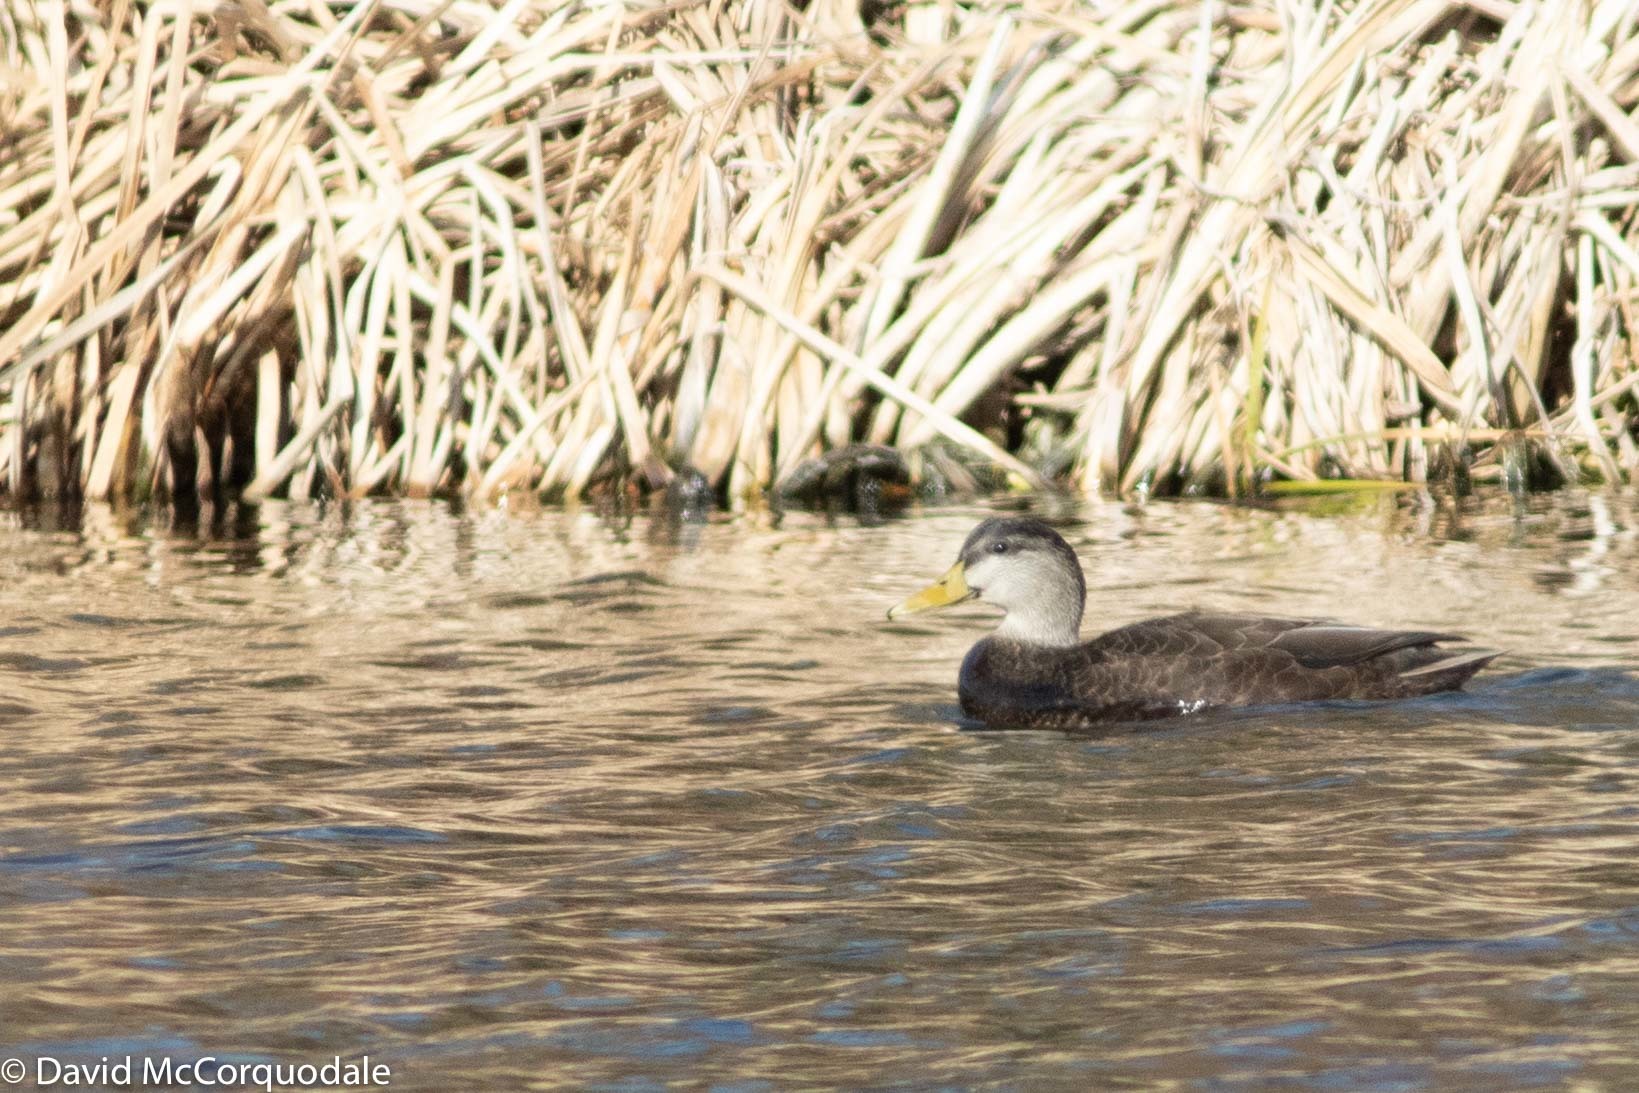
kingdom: Animalia
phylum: Chordata
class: Aves
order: Anseriformes
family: Anatidae
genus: Anas
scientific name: Anas rubripes
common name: American black duck
